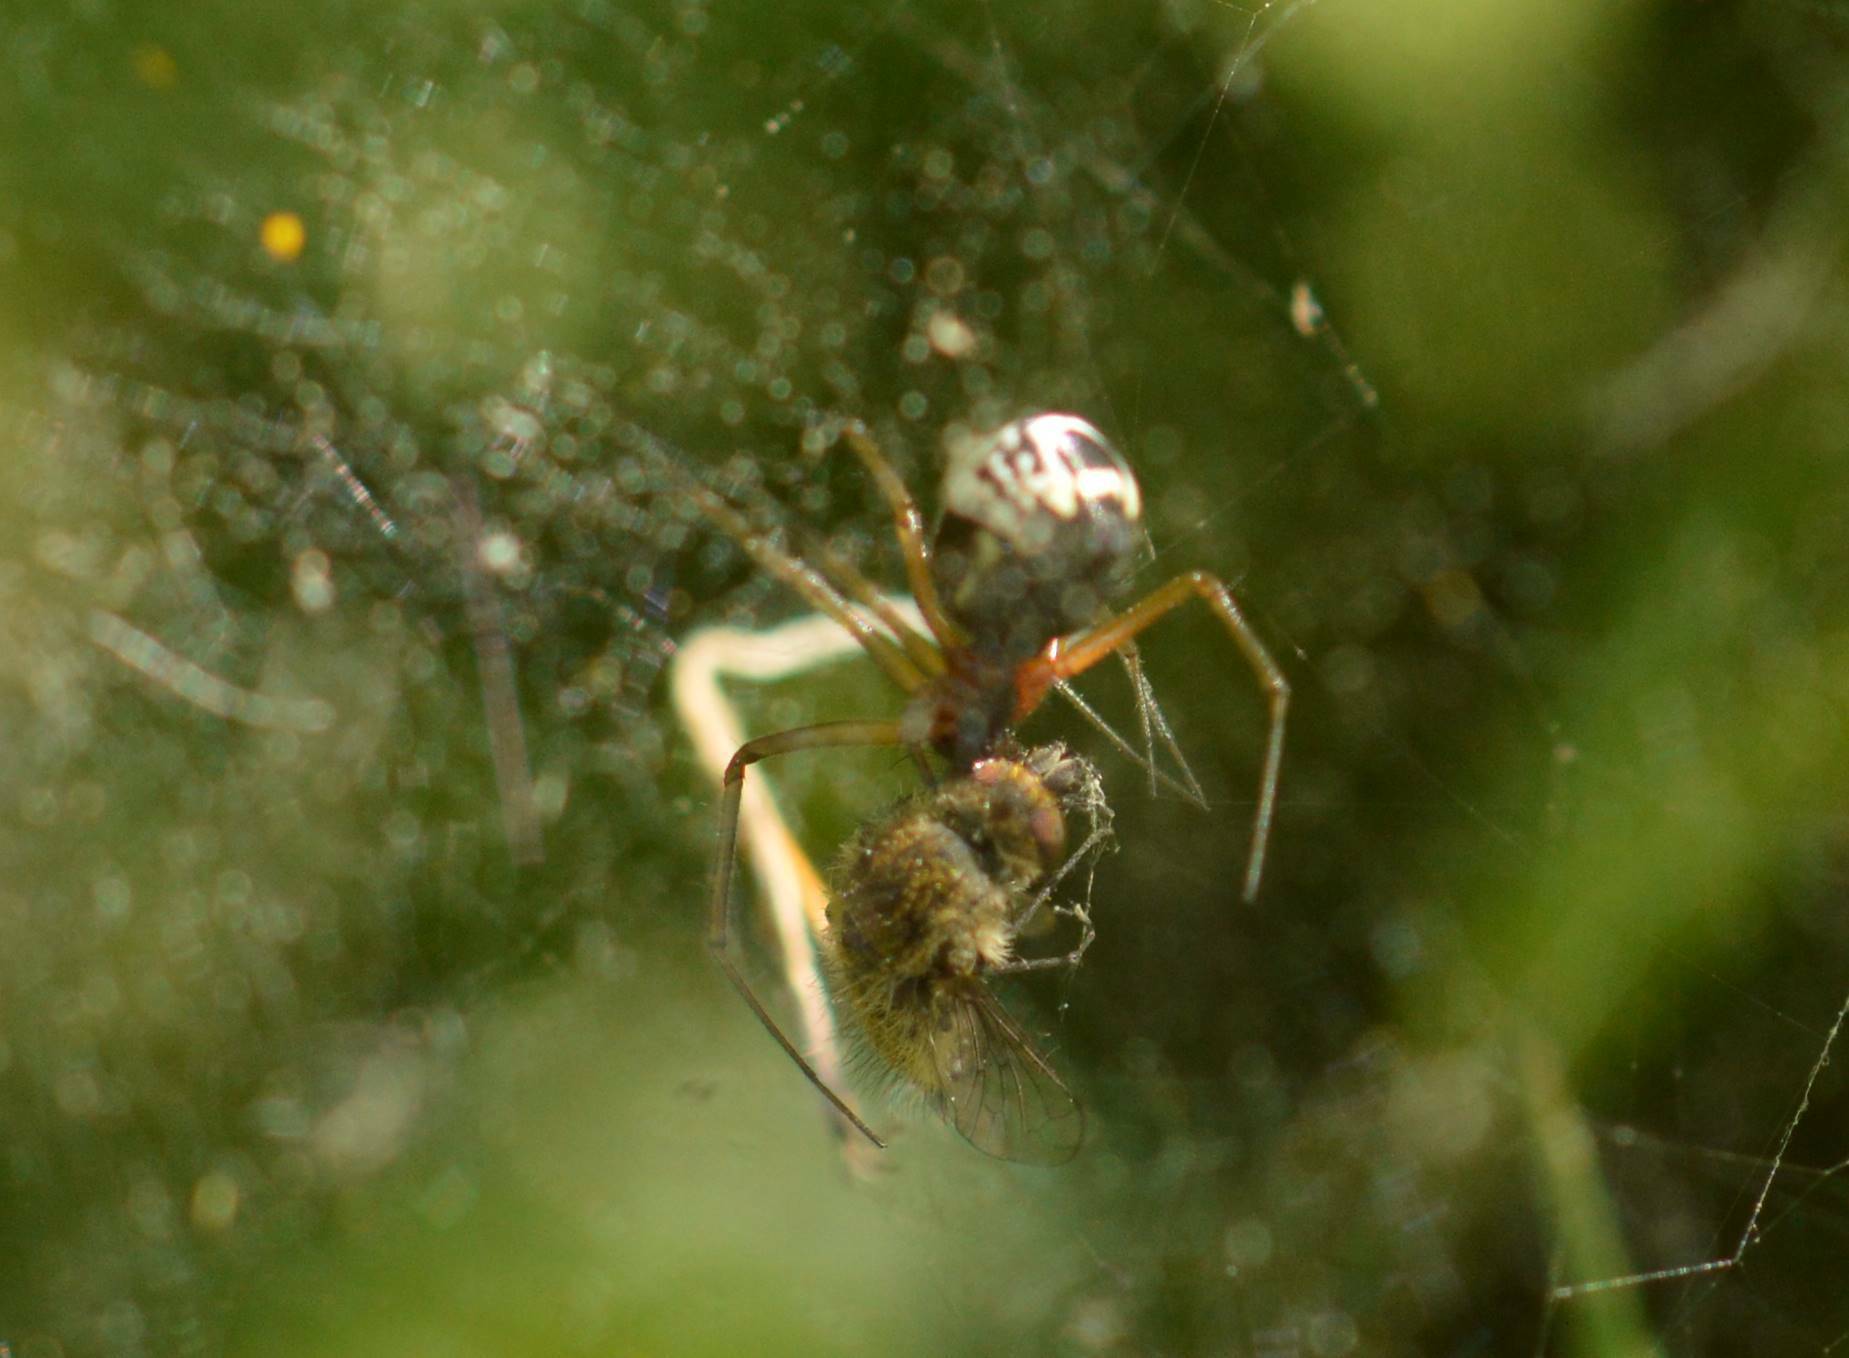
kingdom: Animalia
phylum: Arthropoda
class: Arachnida
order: Araneae
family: Linyphiidae
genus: Frontinellina
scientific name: Frontinellina frutetorum
